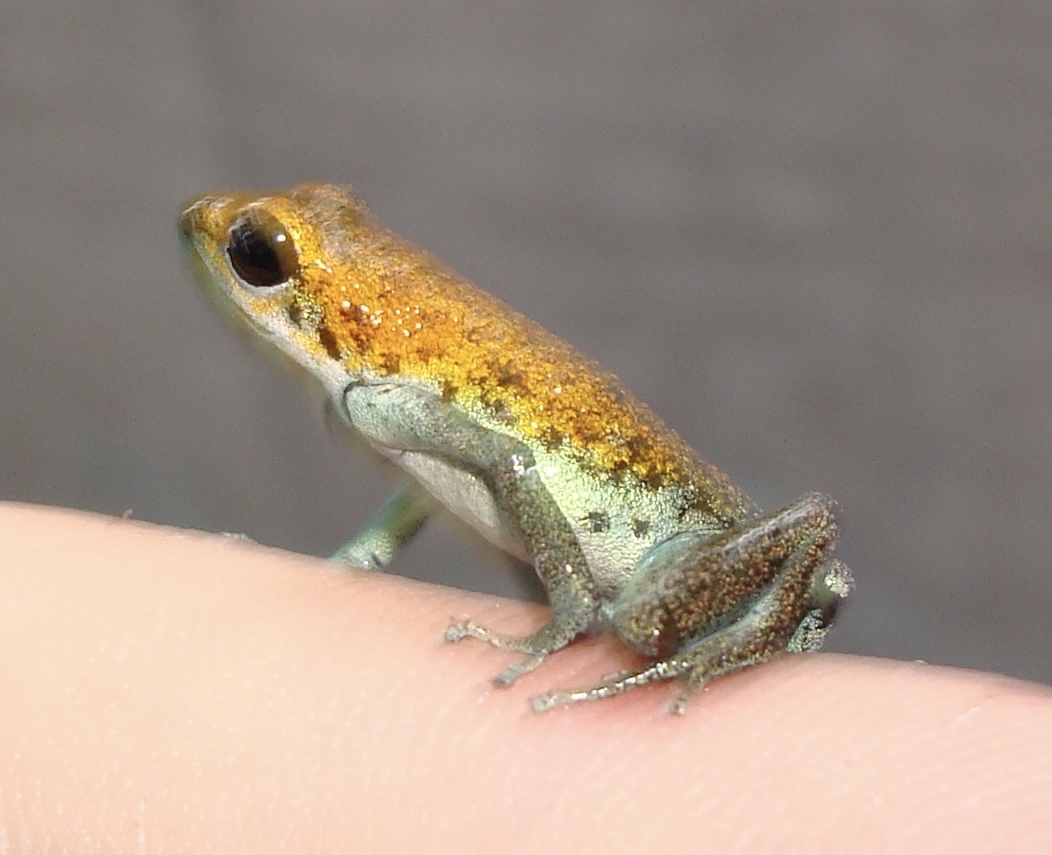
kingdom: Animalia
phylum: Chordata
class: Amphibia
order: Anura
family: Dendrobatidae
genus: Oophaga
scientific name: Oophaga pumilio
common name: Flaming poison frog
